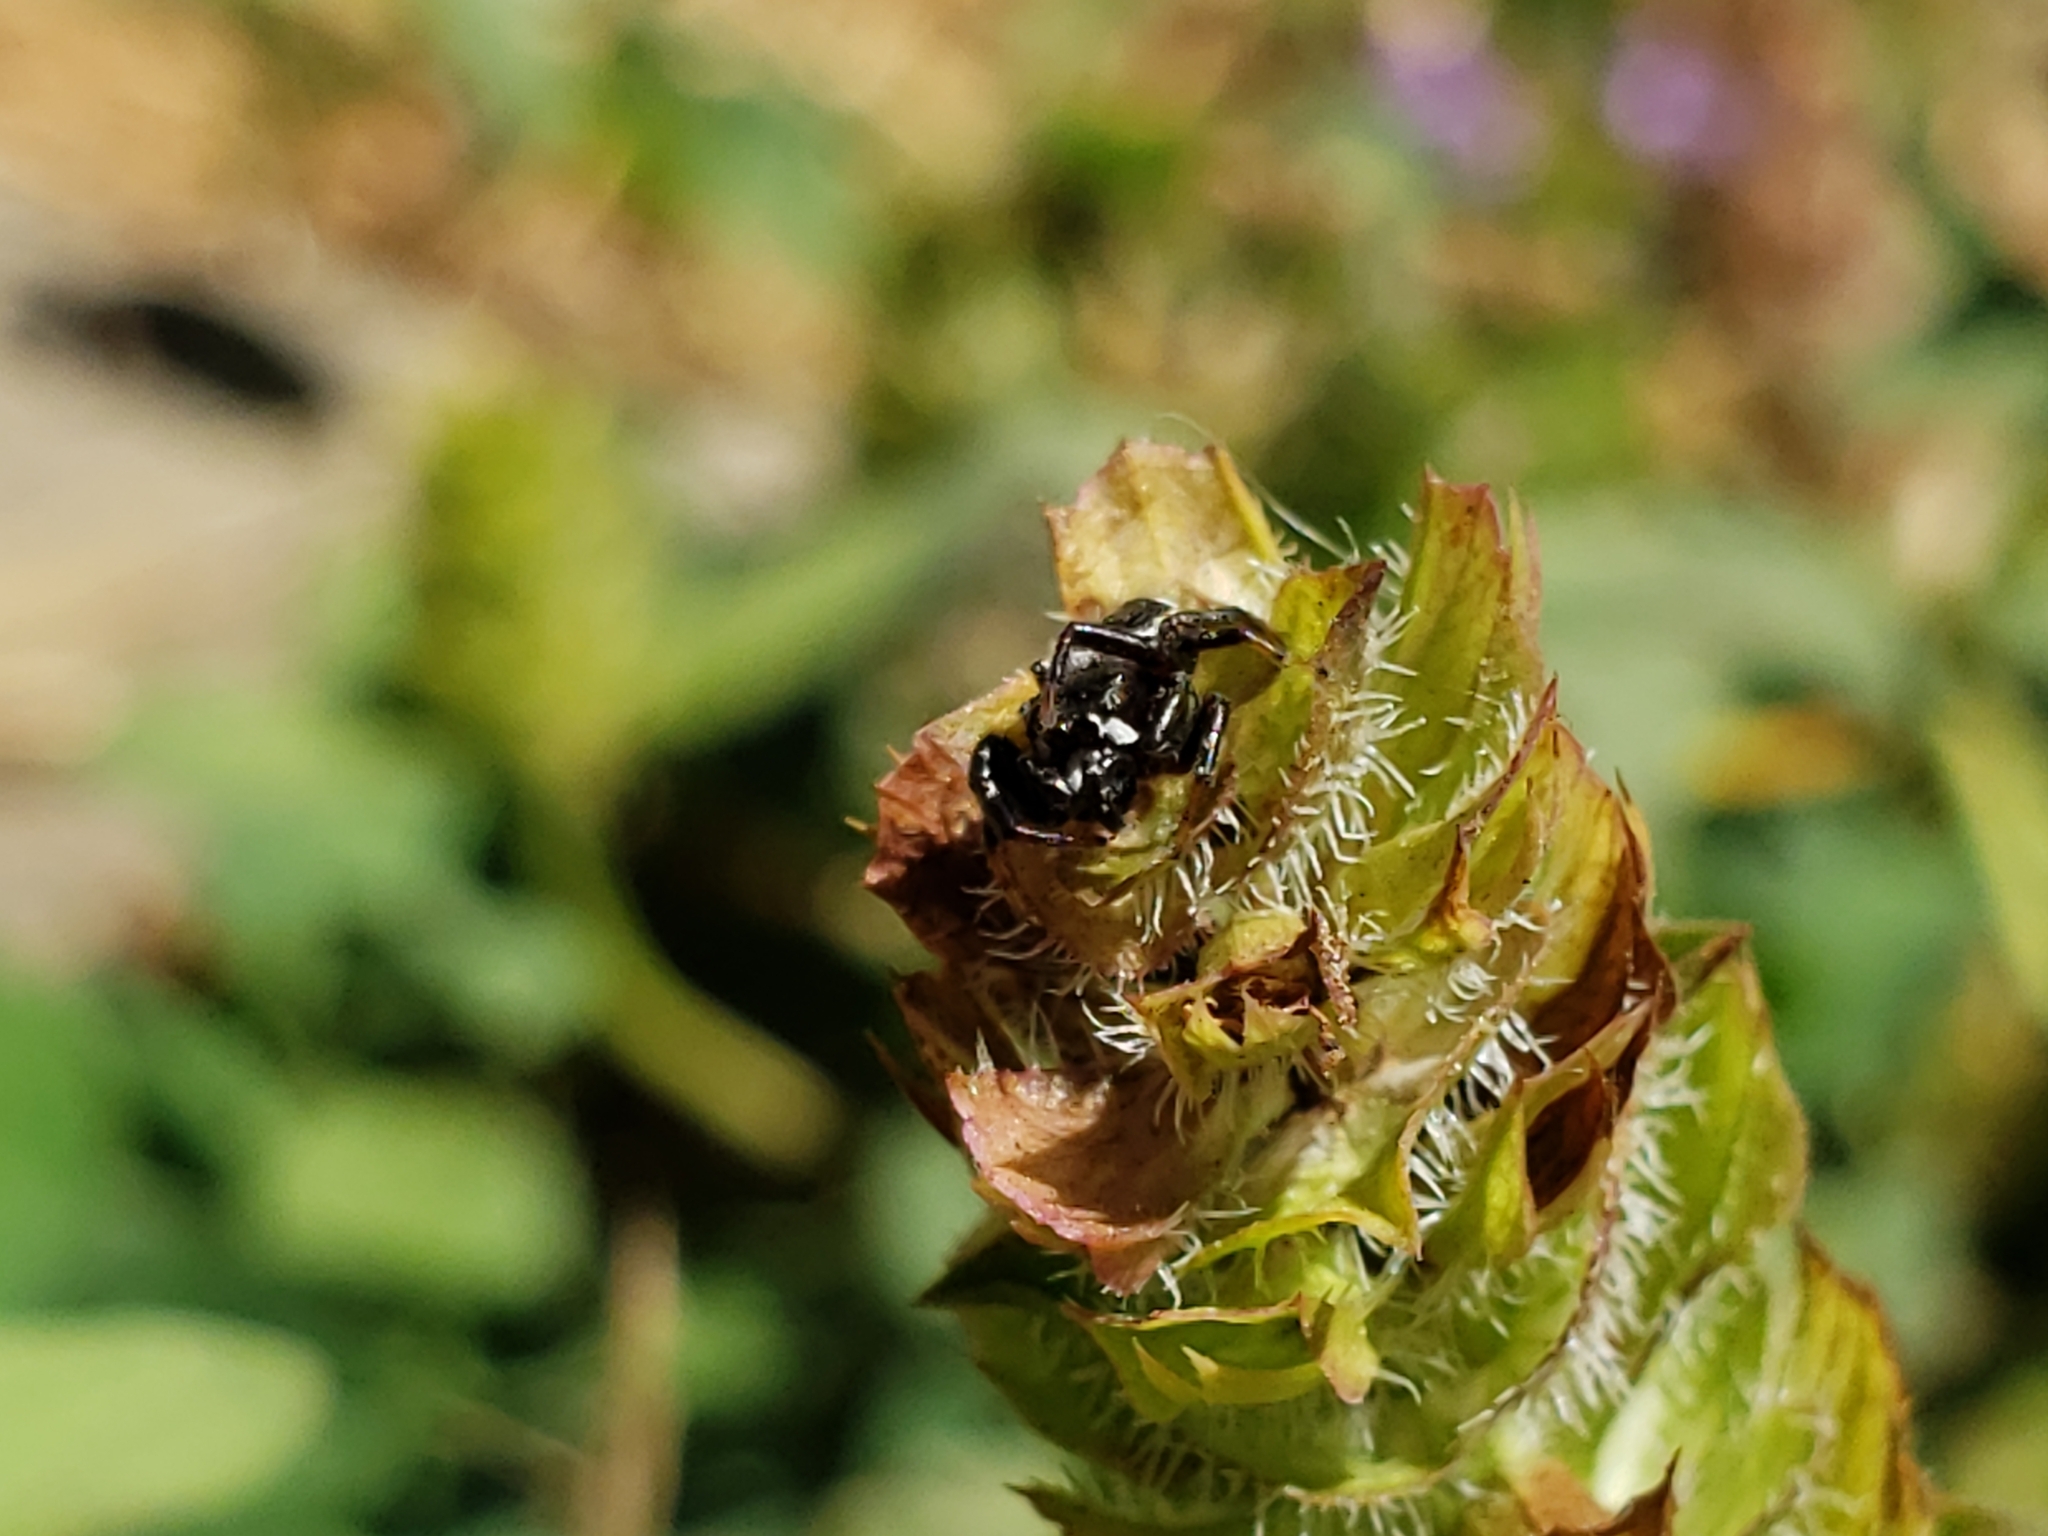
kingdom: Animalia
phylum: Arthropoda
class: Arachnida
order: Araneae
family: Salticidae
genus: Metaphidippus
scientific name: Metaphidippus manni
